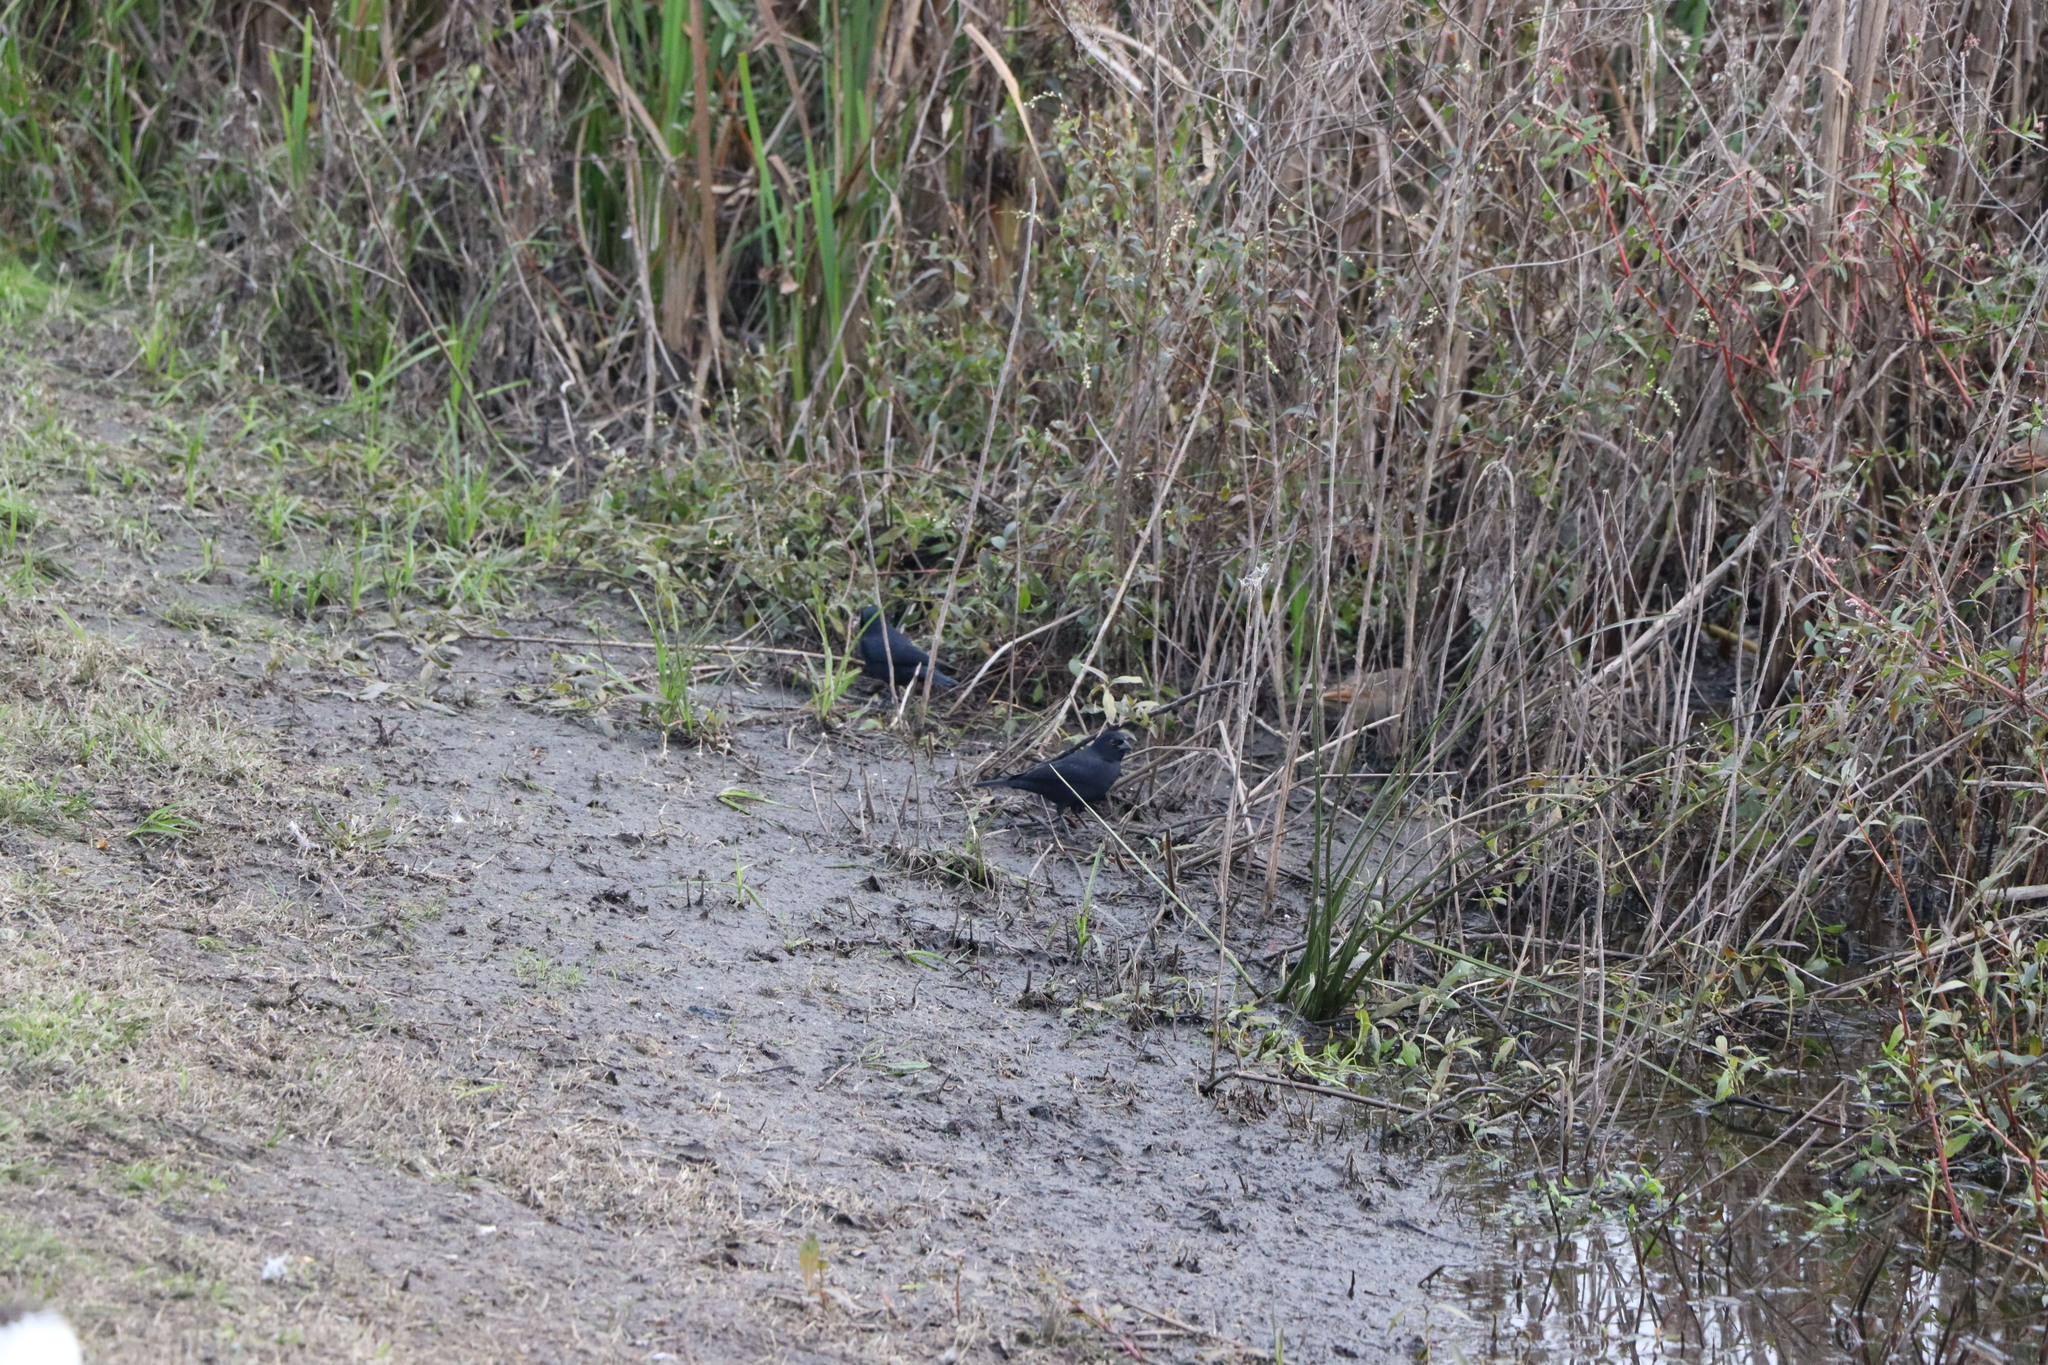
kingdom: Animalia
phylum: Chordata
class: Aves
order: Passeriformes
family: Icteridae
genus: Molothrus
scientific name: Molothrus bonariensis
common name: Shiny cowbird
